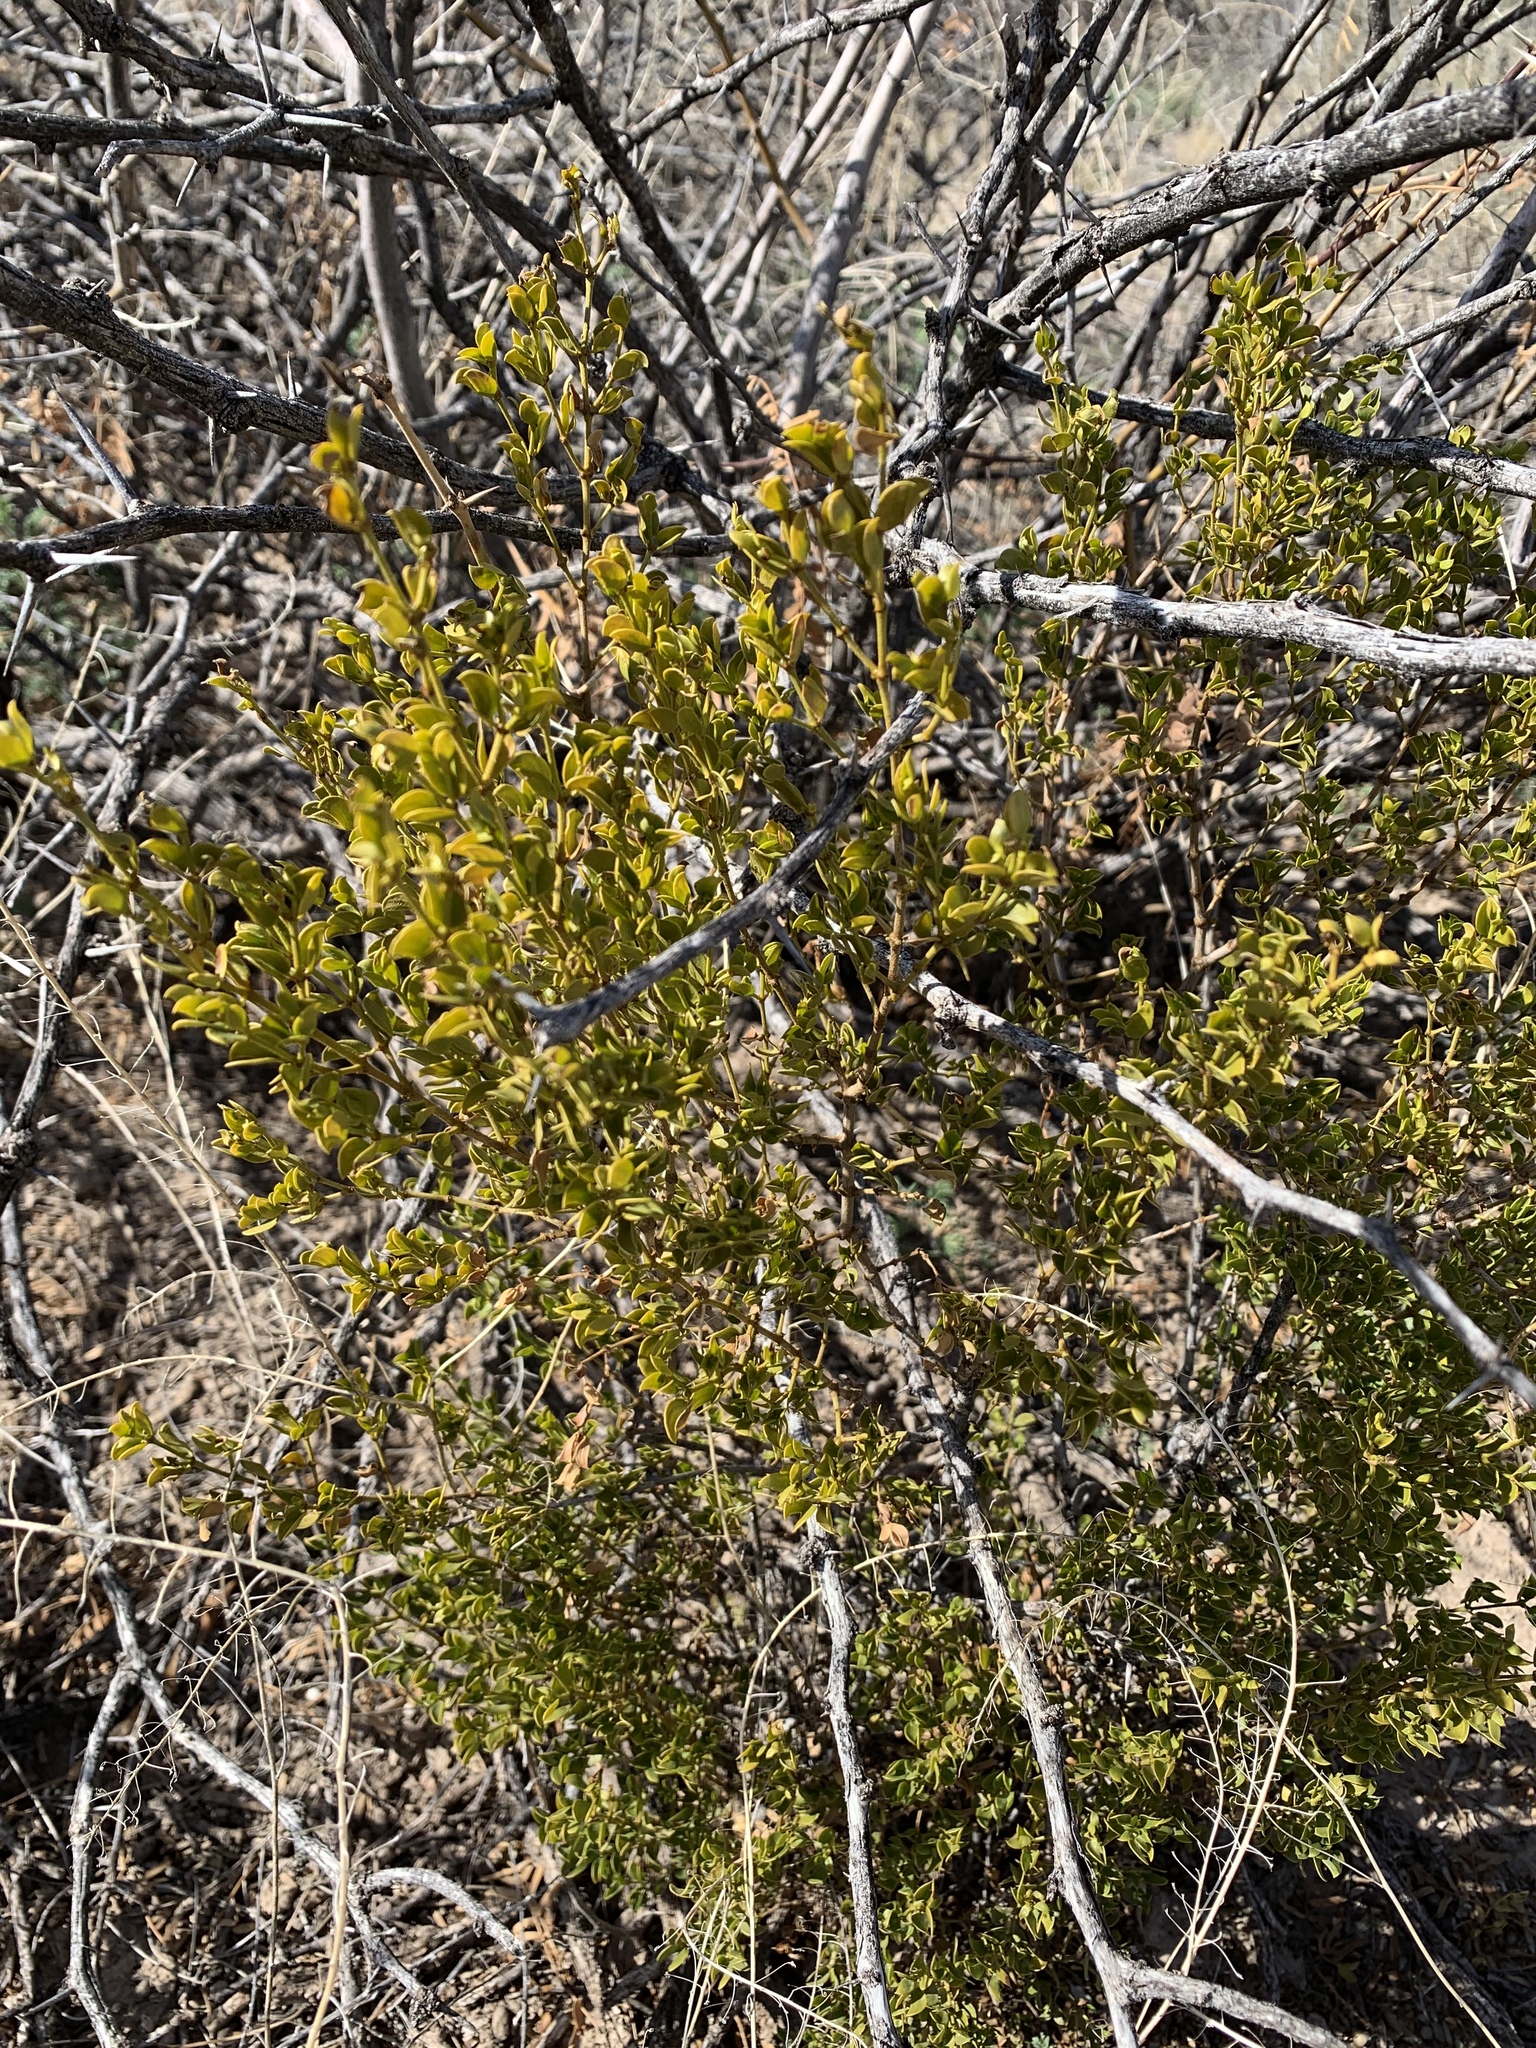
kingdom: Plantae
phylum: Tracheophyta
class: Magnoliopsida
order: Zygophyllales
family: Zygophyllaceae
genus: Larrea
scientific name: Larrea tridentata
